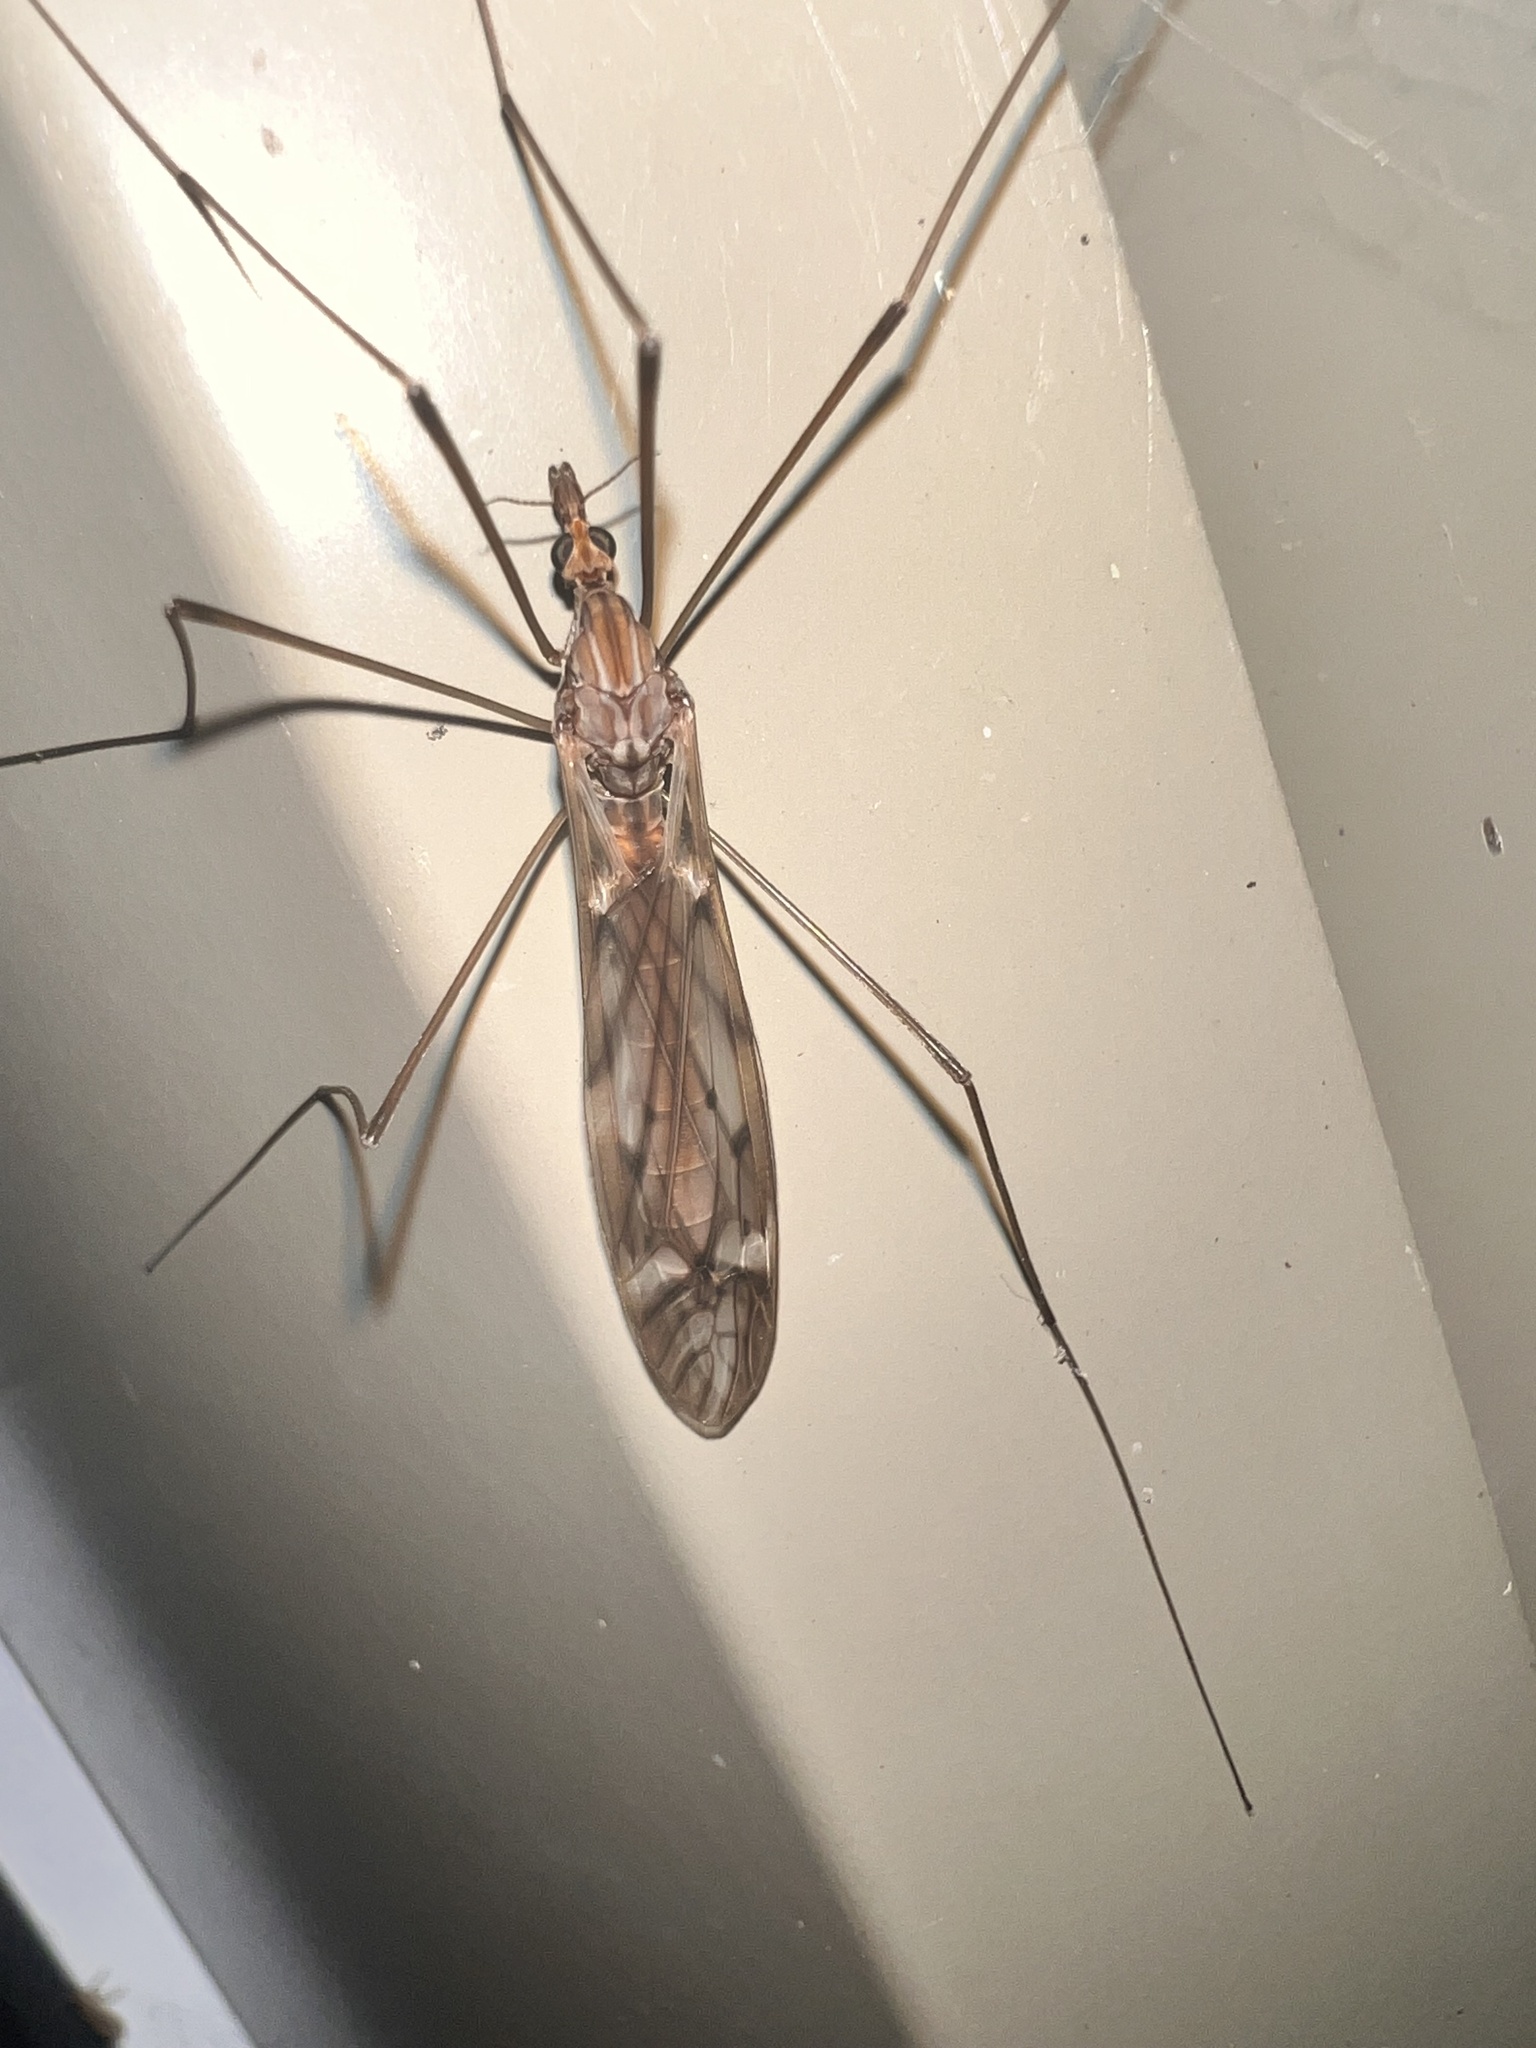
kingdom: Animalia
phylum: Arthropoda
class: Insecta
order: Diptera
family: Tipulidae
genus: Zelandotipula
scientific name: Zelandotipula novarae
